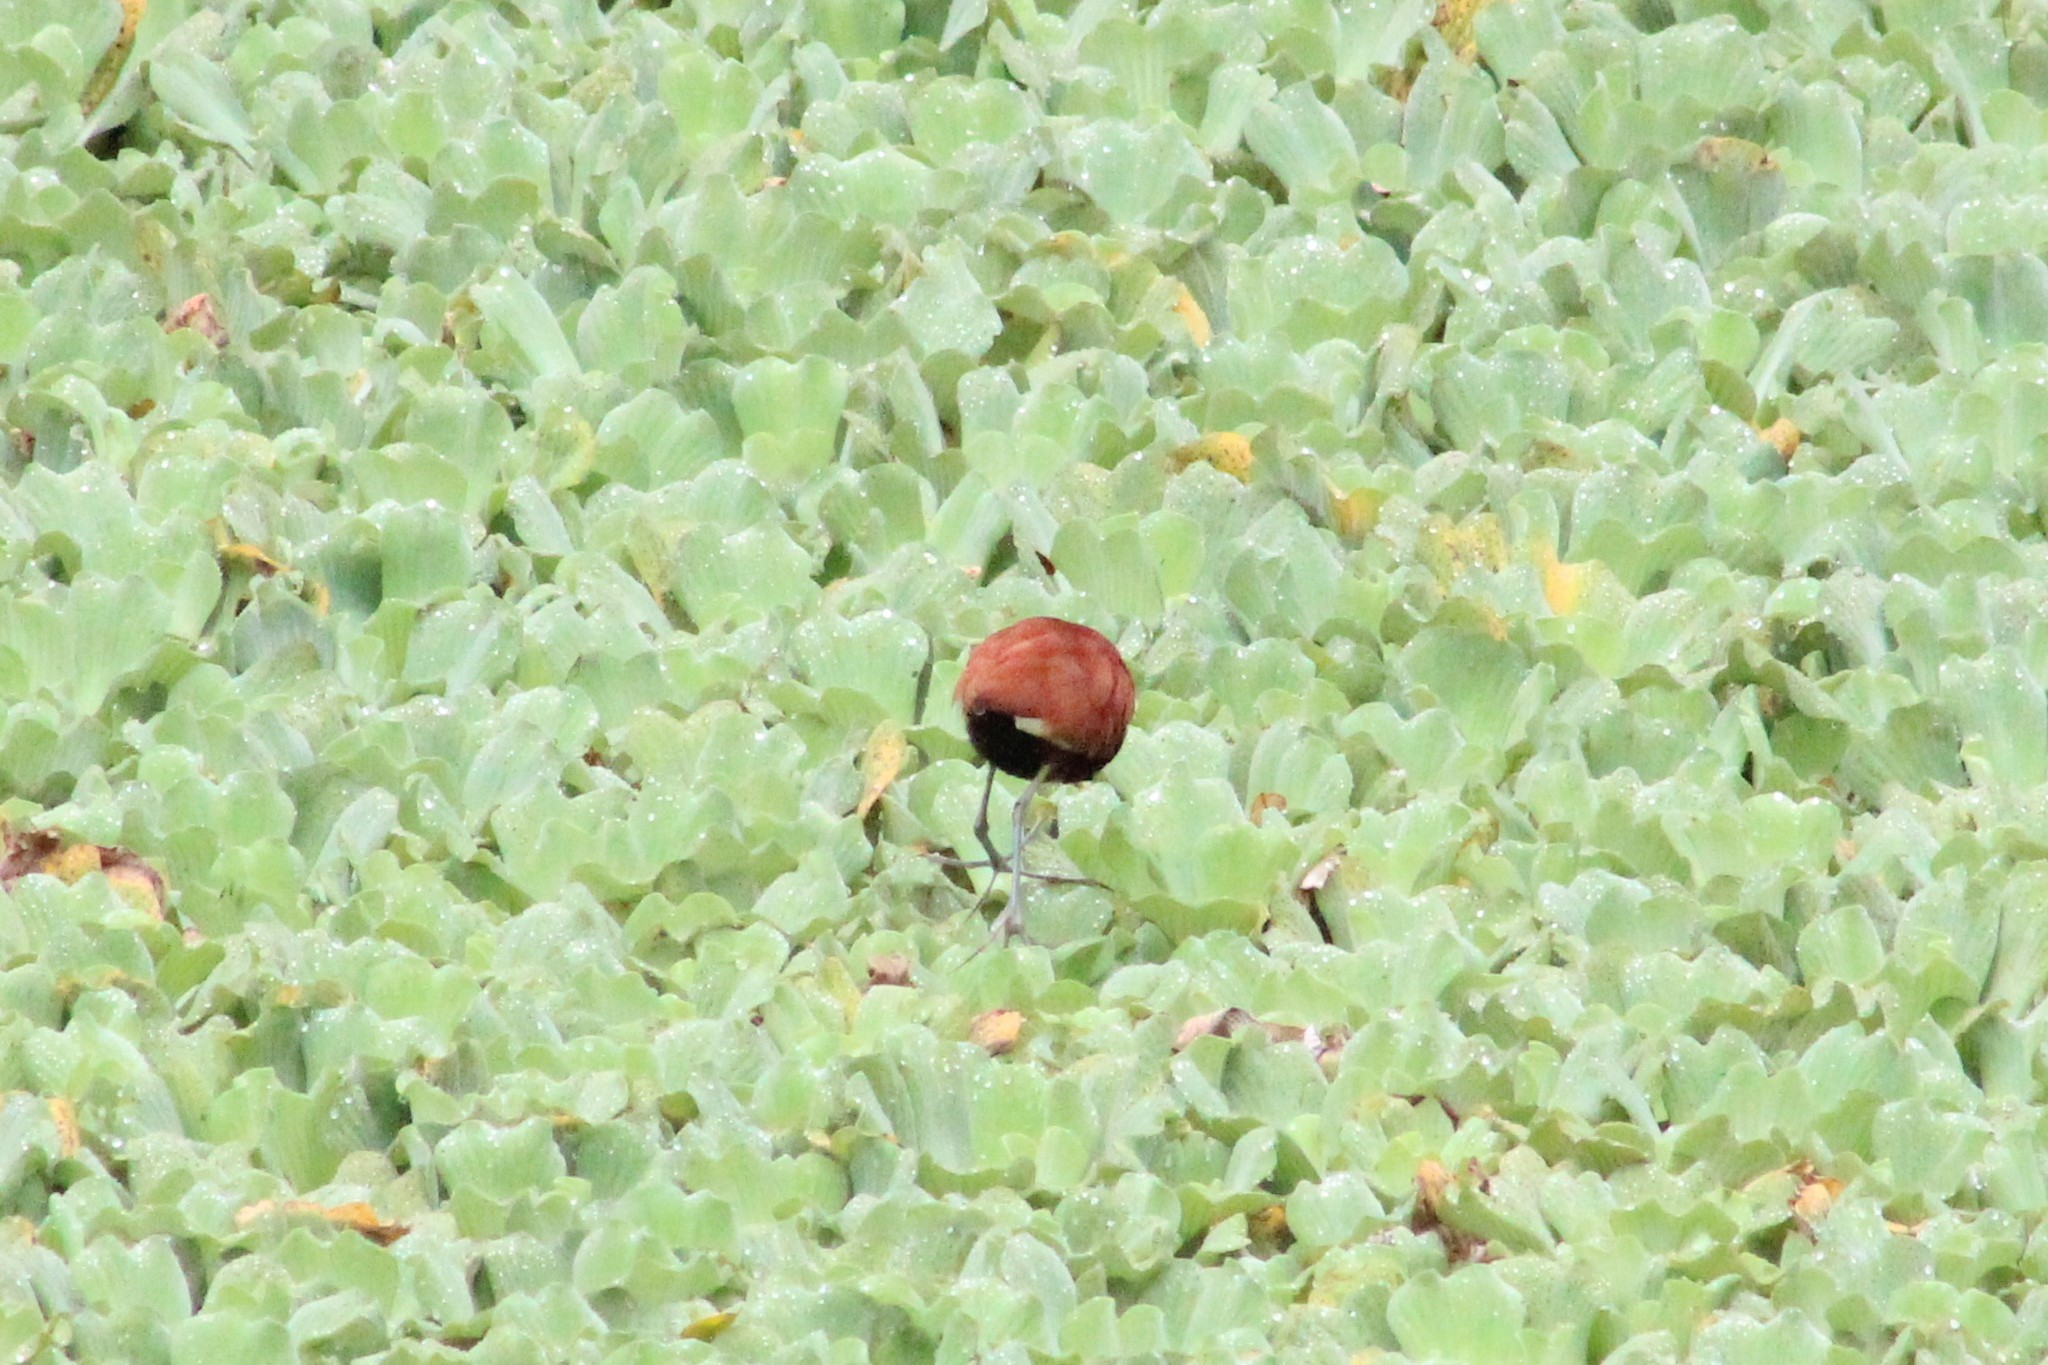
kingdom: Animalia
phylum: Chordata
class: Aves
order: Charadriiformes
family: Jacanidae
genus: Jacana
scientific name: Jacana jacana
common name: Wattled jacana
